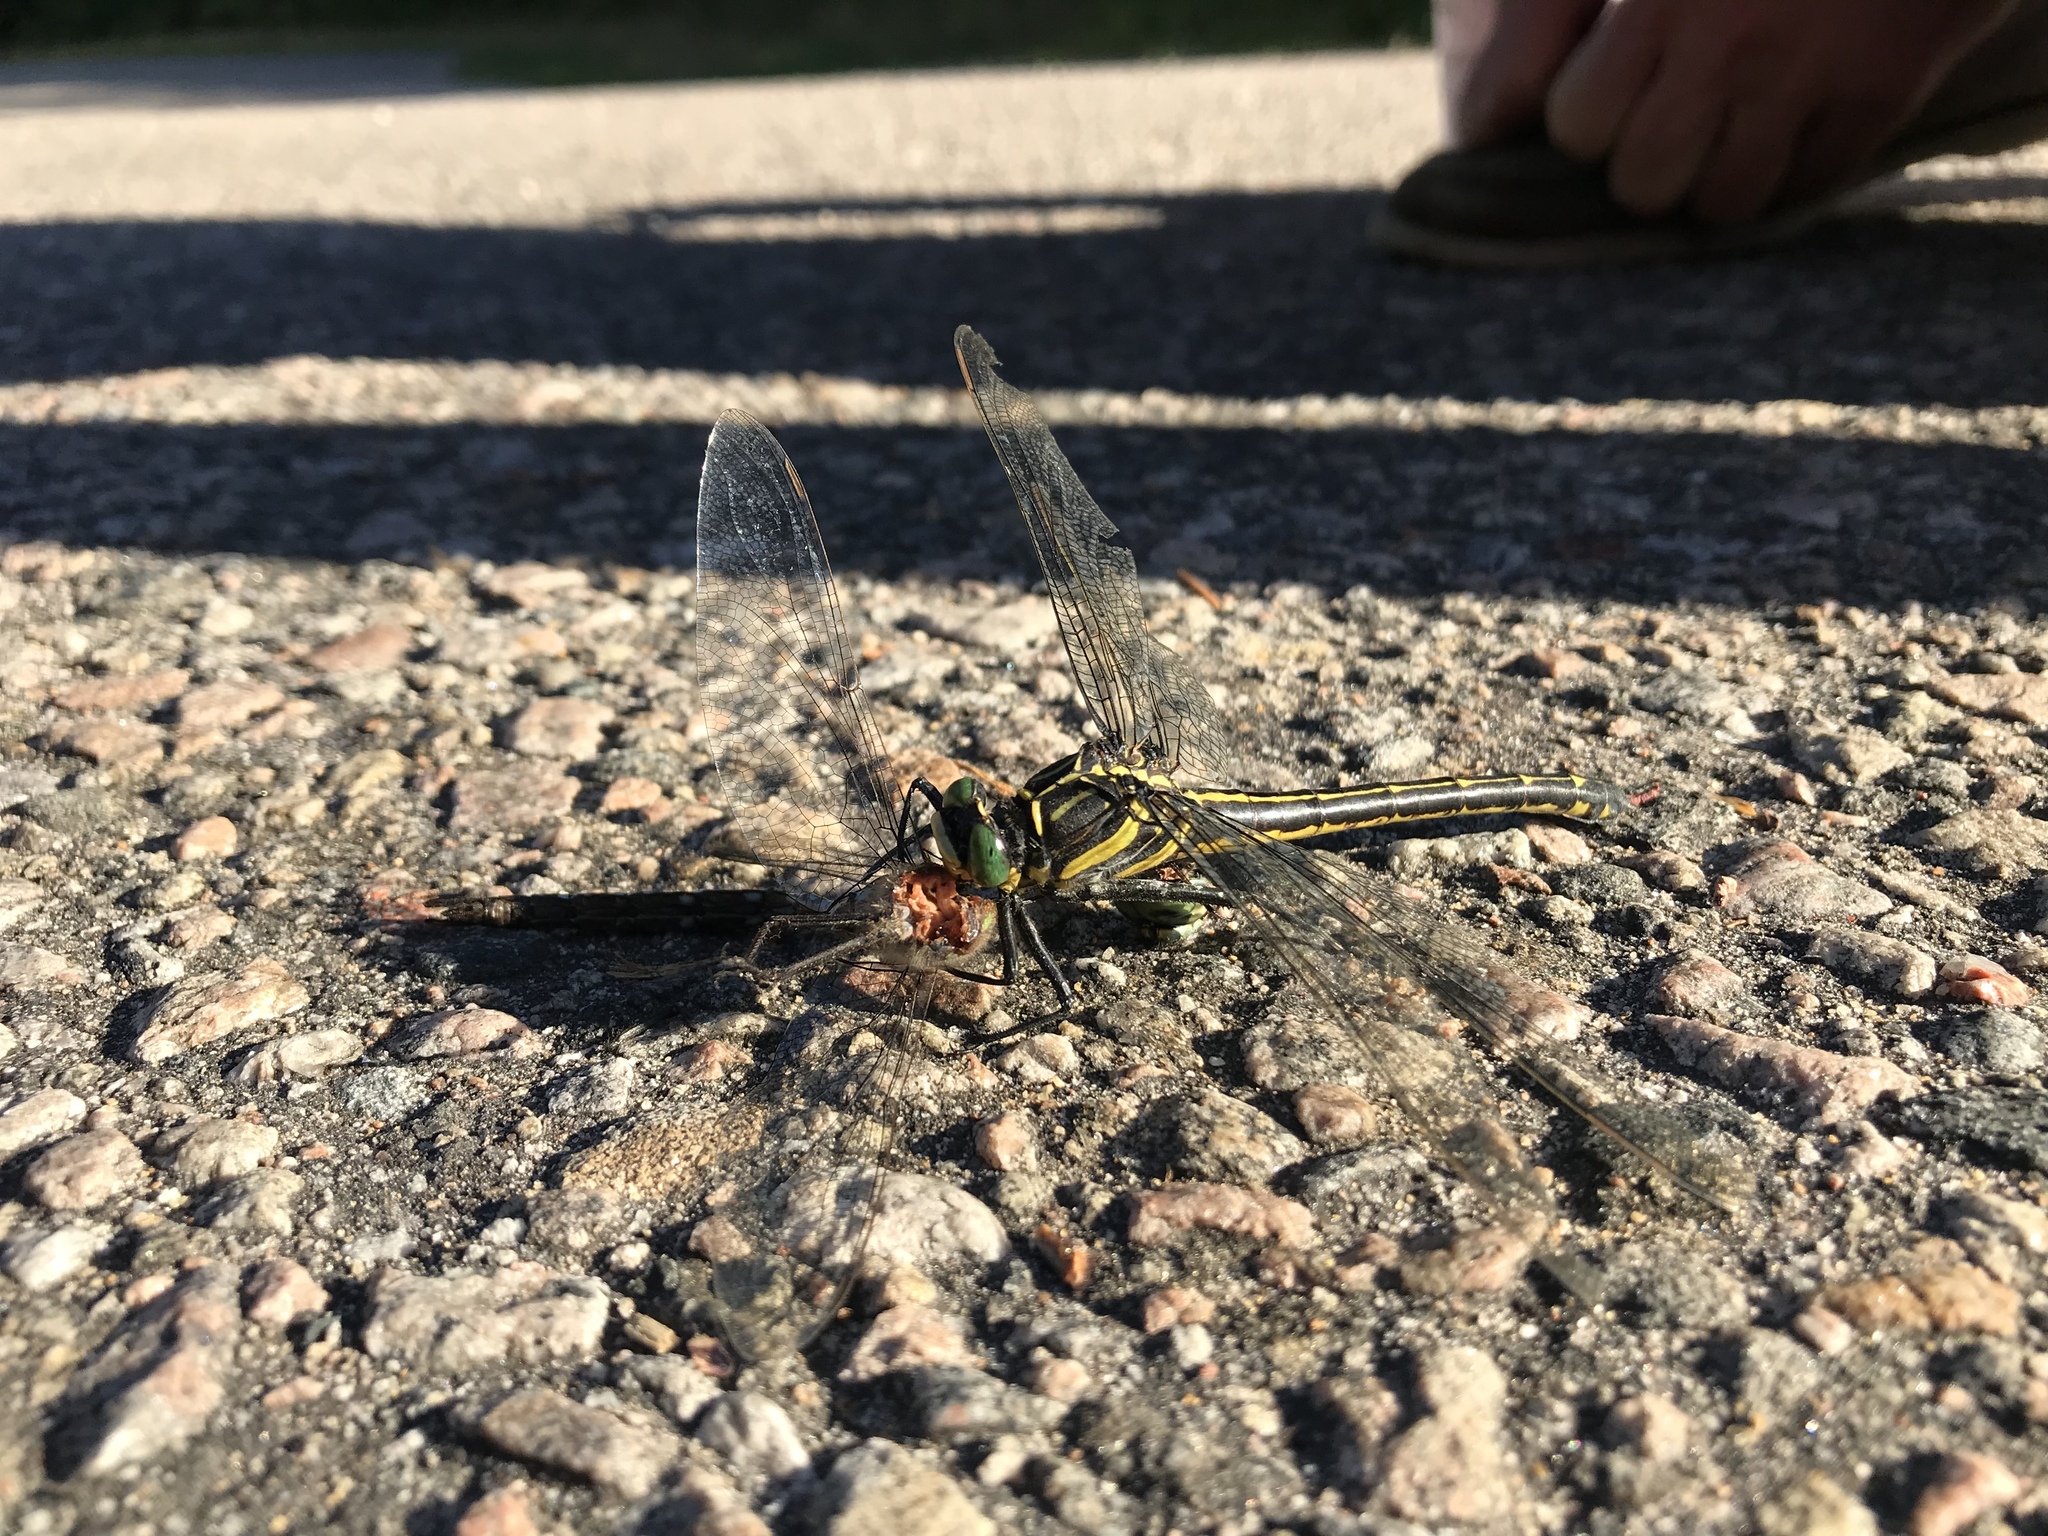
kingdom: Animalia
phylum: Arthropoda
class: Insecta
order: Odonata
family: Gomphidae
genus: Hagenius
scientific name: Hagenius brevistylus
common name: Dragonhunter
